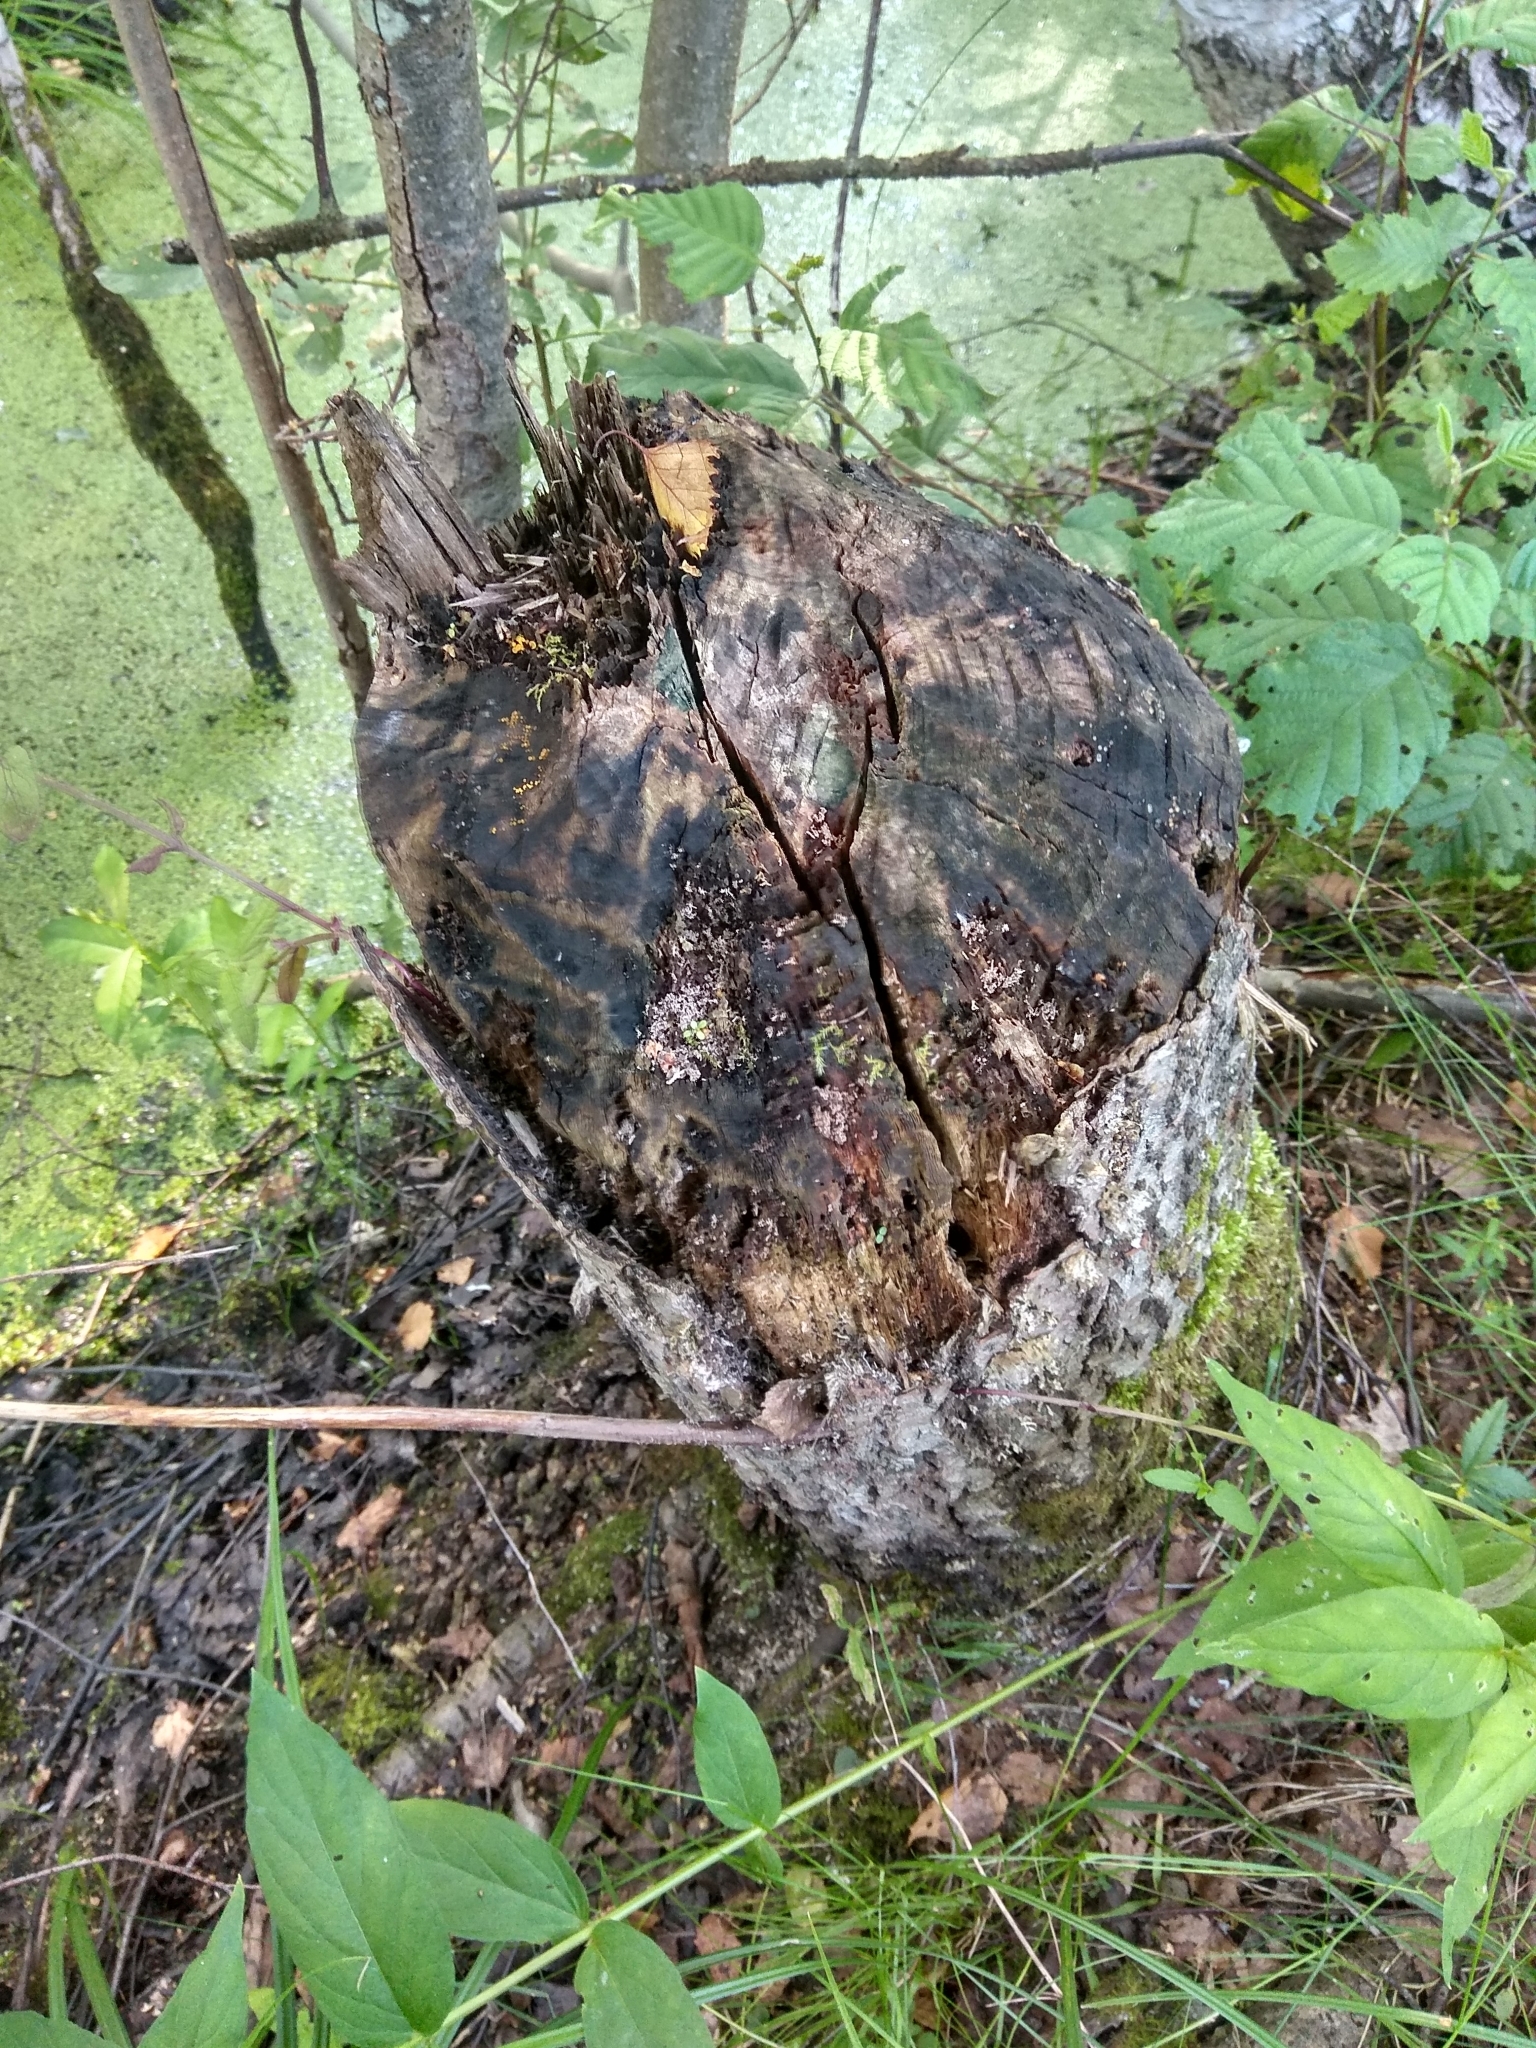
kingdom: Animalia
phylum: Chordata
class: Mammalia
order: Rodentia
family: Castoridae
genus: Castor
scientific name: Castor fiber
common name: Eurasian beaver
